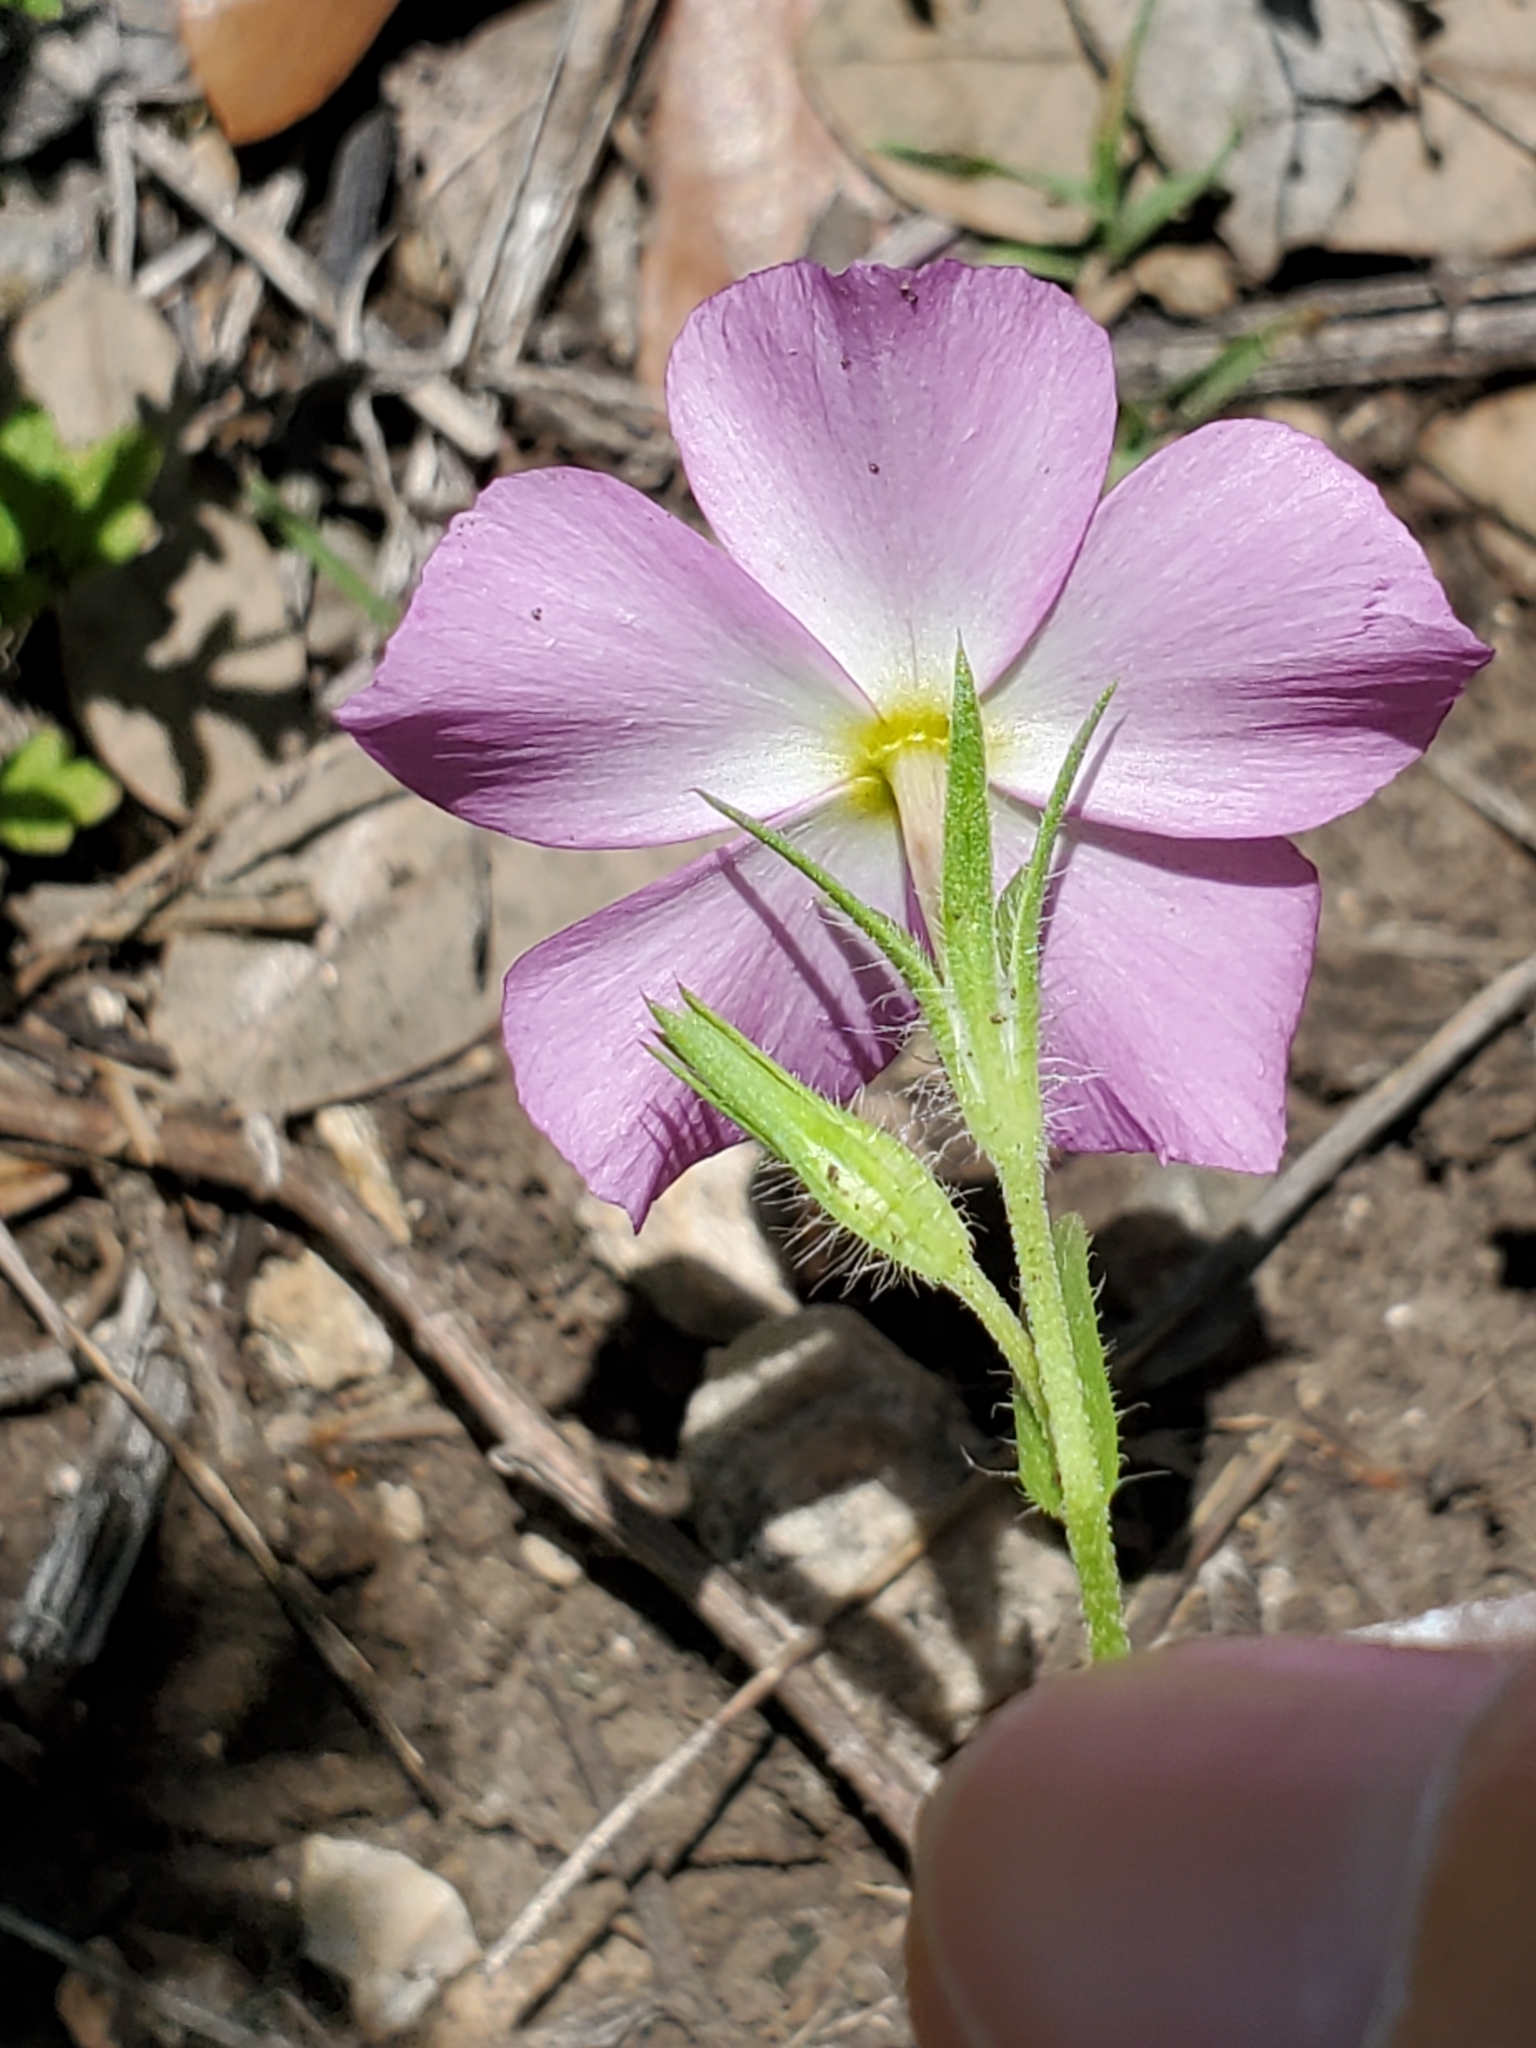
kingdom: Plantae
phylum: Tracheophyta
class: Magnoliopsida
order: Ericales
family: Polemoniaceae
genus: Phlox
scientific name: Phlox roemeriana
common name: Roemer's phlox
